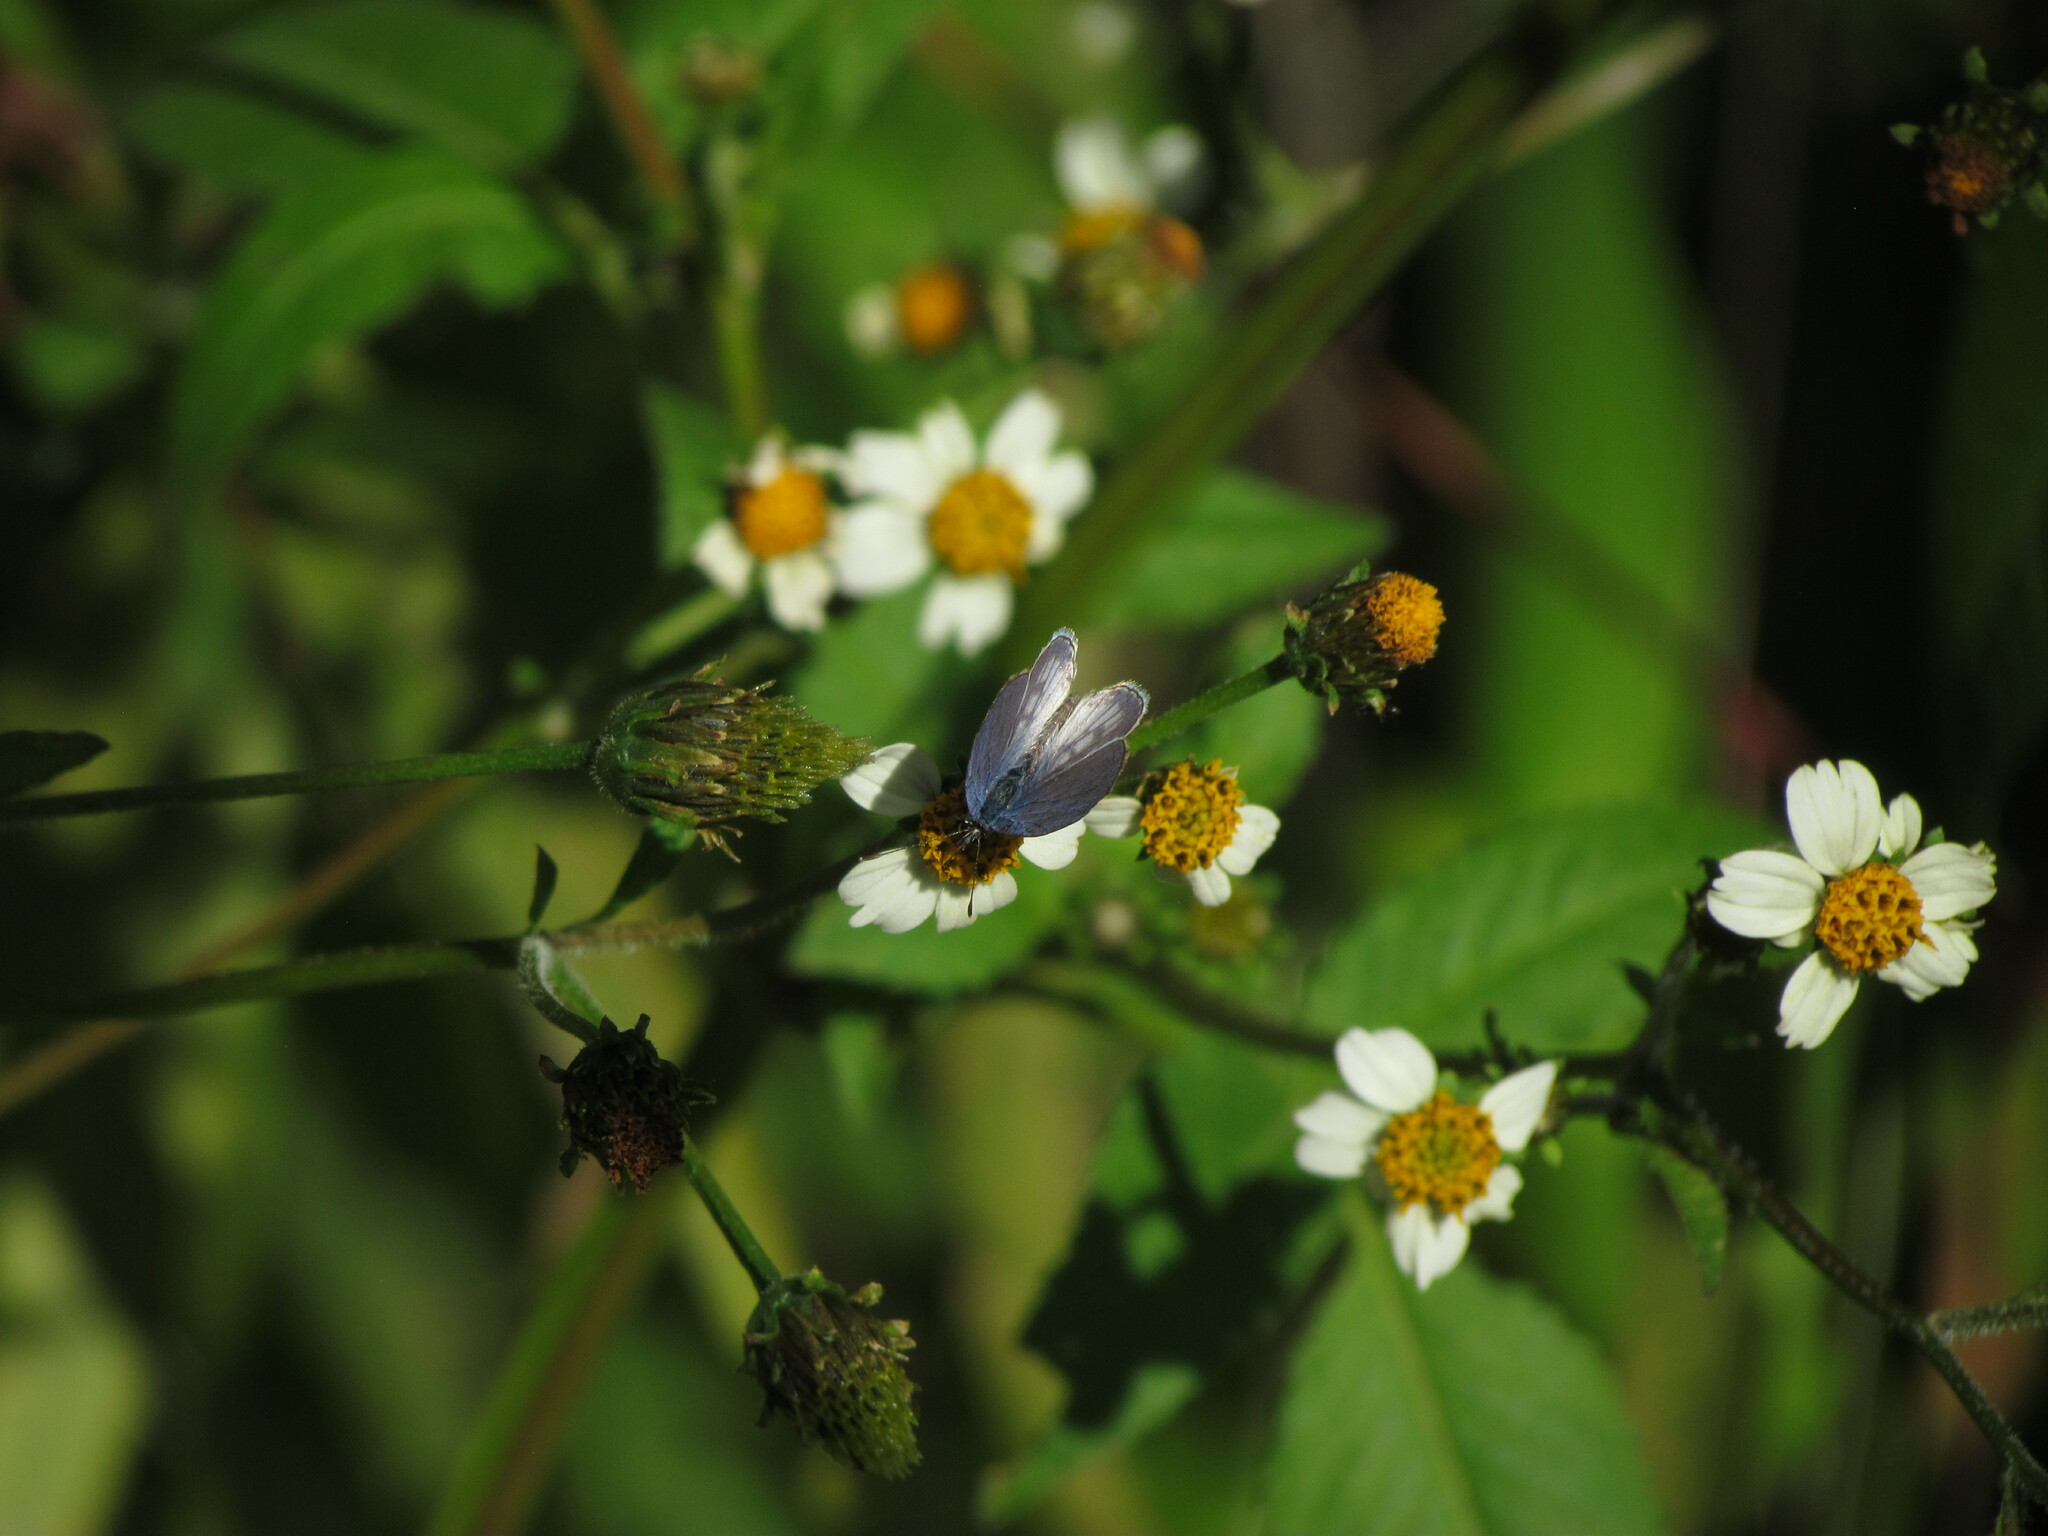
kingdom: Animalia
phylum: Arthropoda
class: Insecta
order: Lepidoptera
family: Lycaenidae
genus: Leptotes
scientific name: Leptotes cassius
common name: Cassius blue
